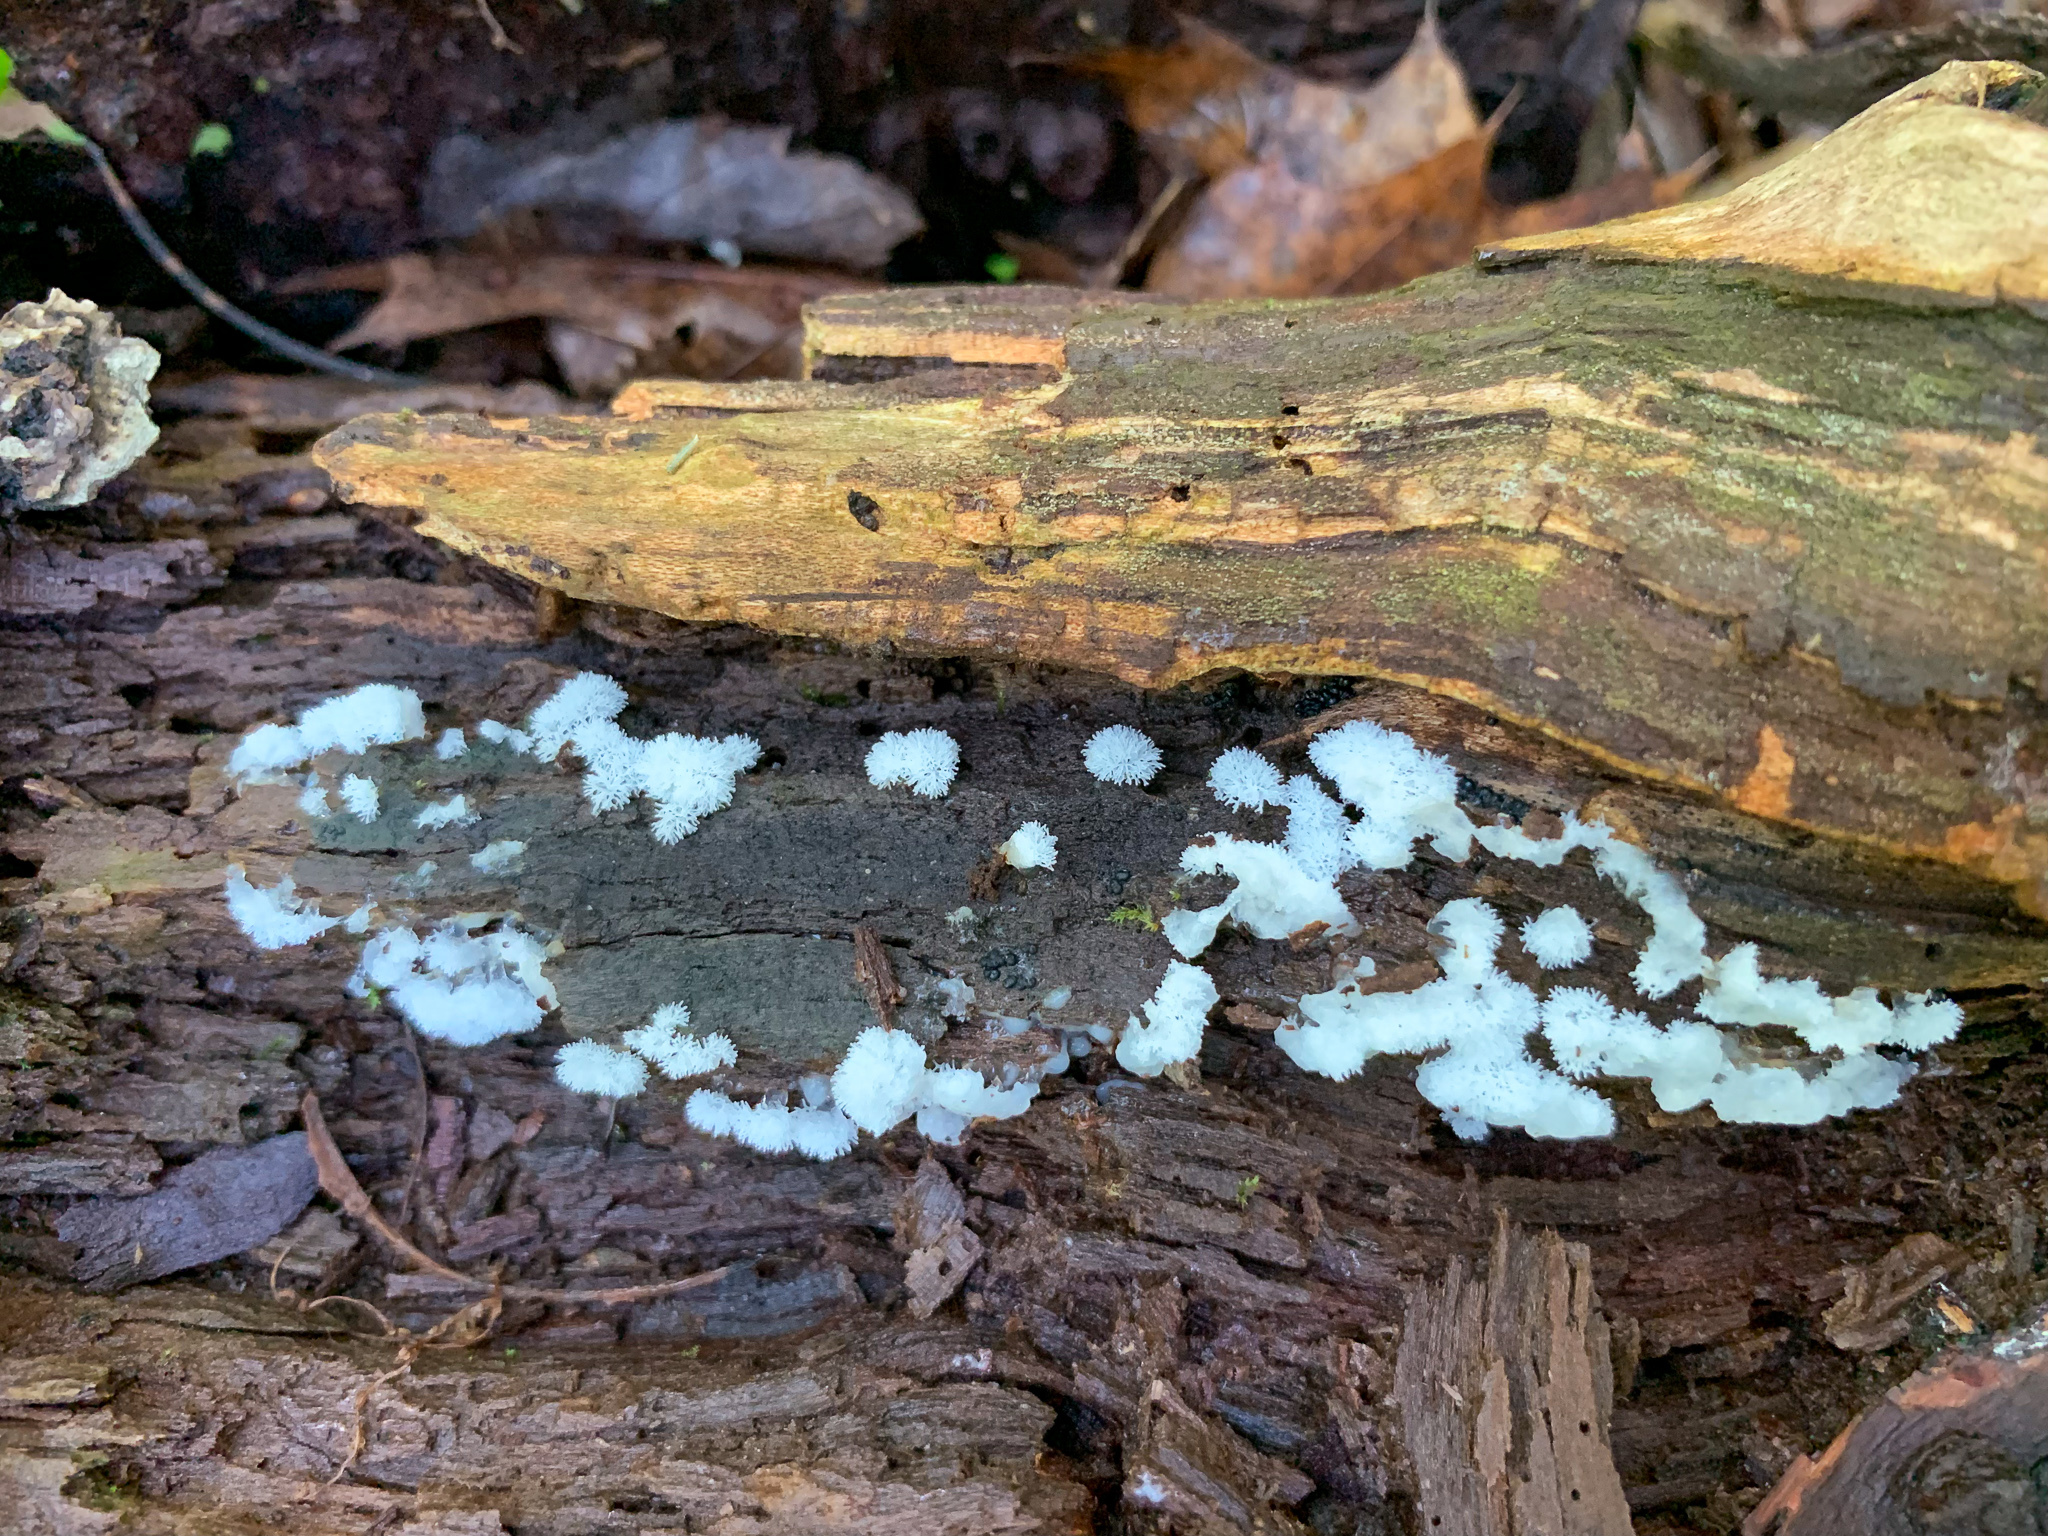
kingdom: Protozoa
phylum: Mycetozoa
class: Protosteliomycetes
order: Ceratiomyxales
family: Ceratiomyxaceae
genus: Ceratiomyxa
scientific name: Ceratiomyxa fruticulosa
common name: Honeycomb coral slime mold
